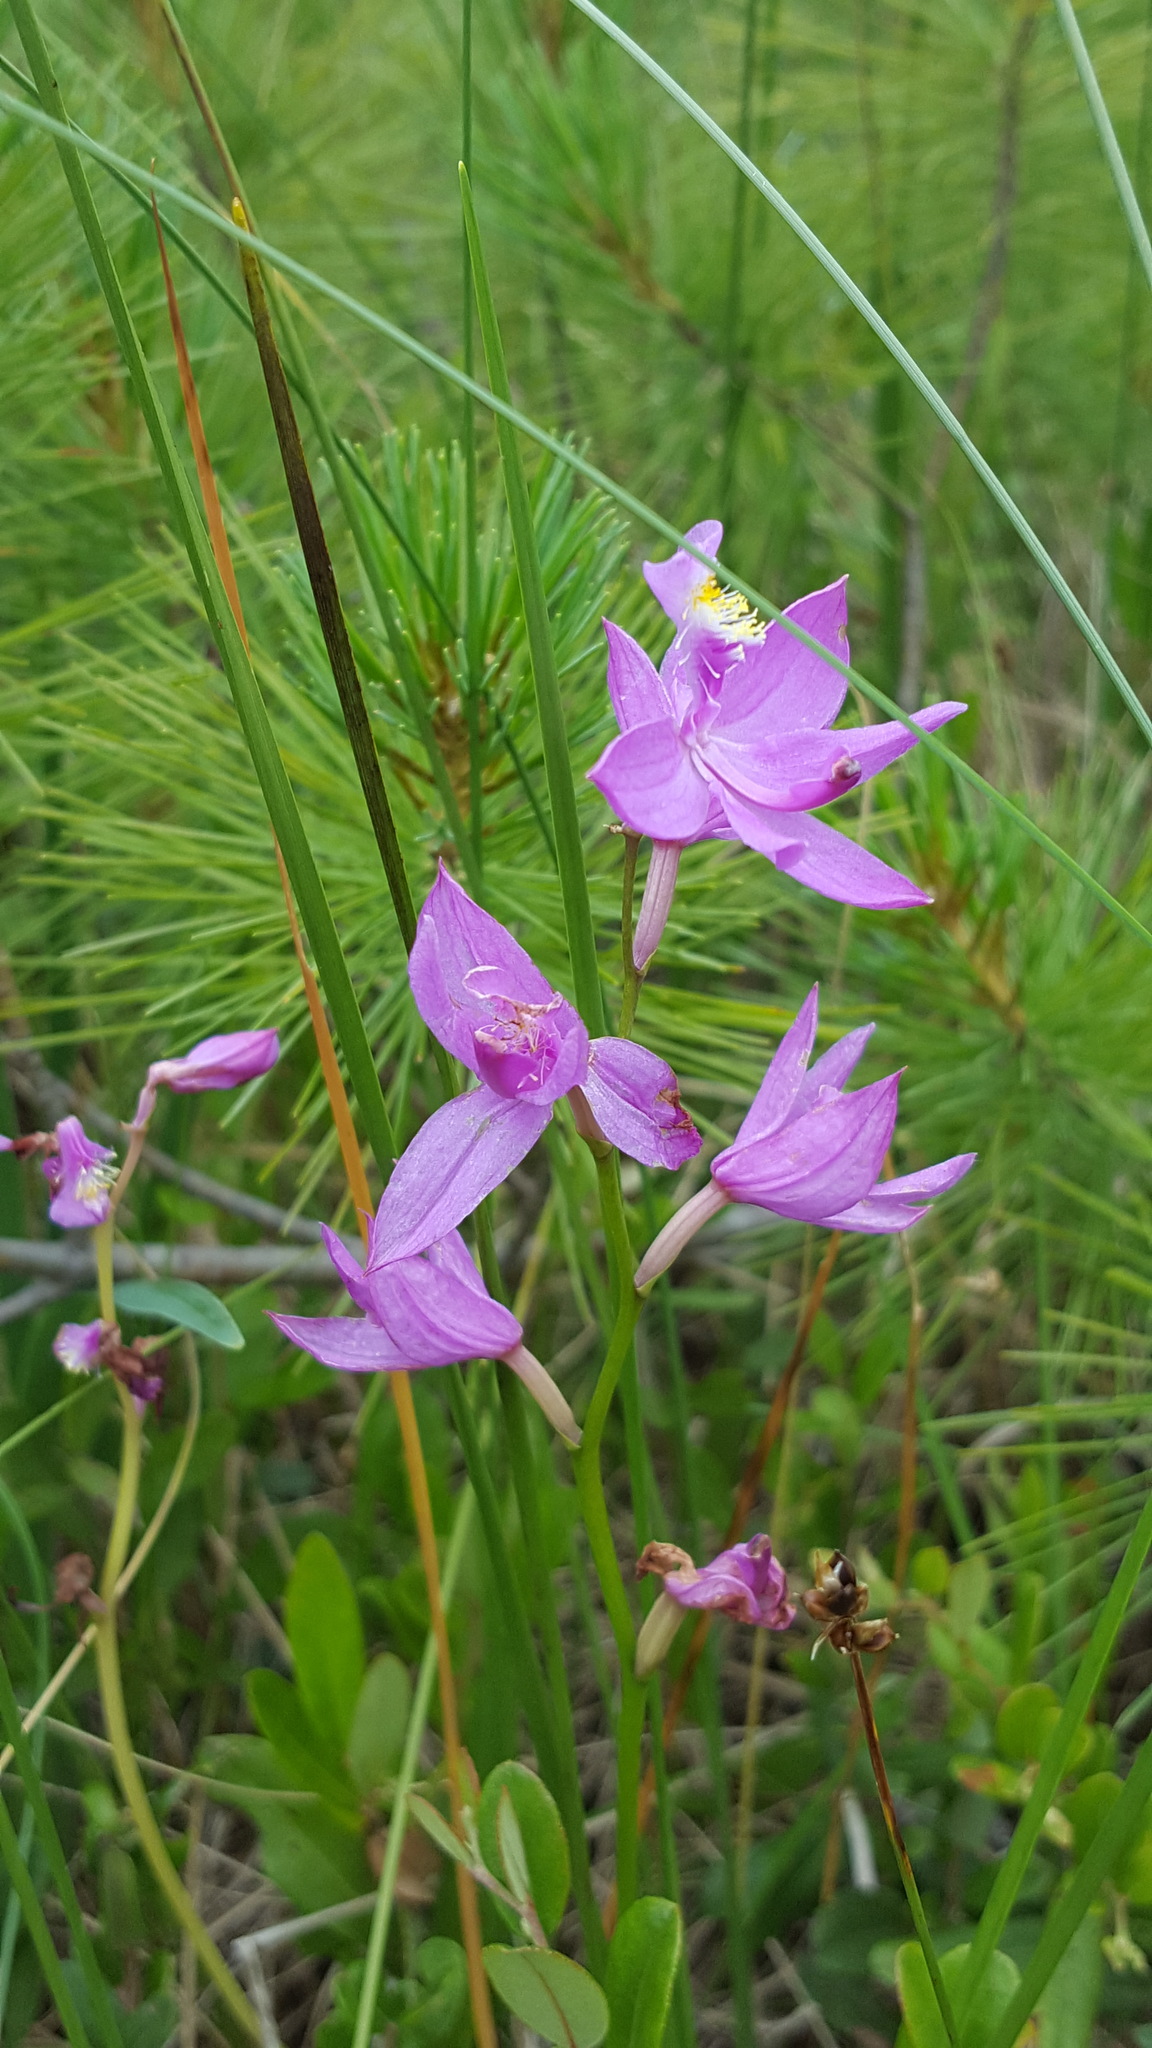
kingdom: Plantae
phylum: Tracheophyta
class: Liliopsida
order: Asparagales
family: Orchidaceae
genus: Calopogon
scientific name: Calopogon tuberosus
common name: Grass-pink
